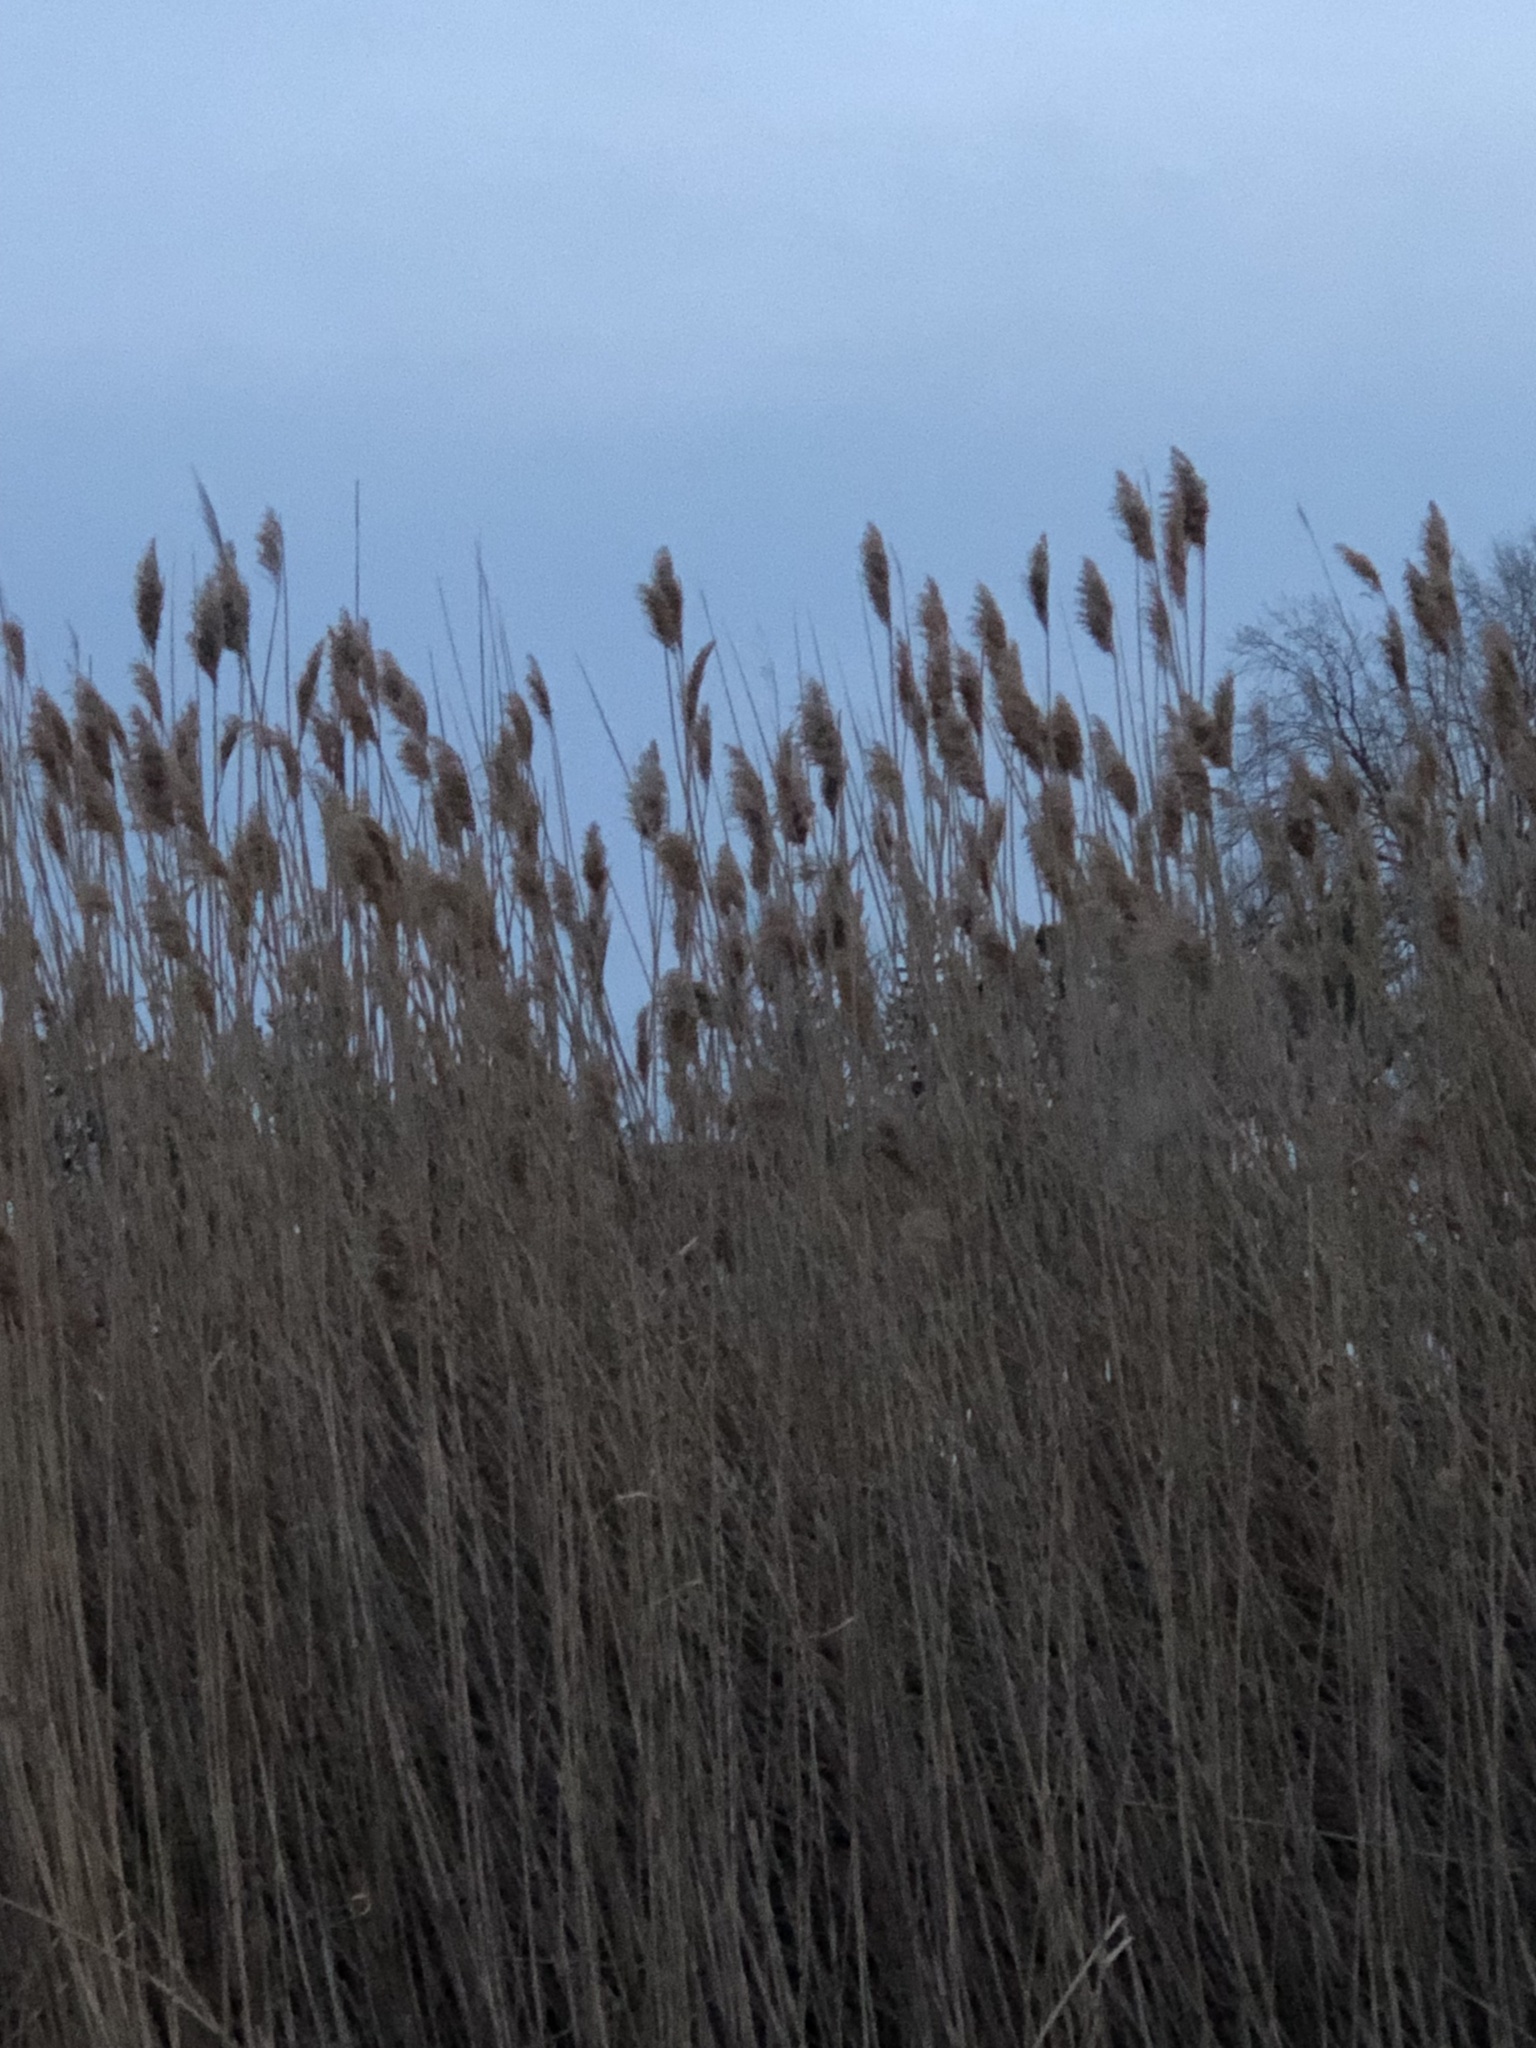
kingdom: Plantae
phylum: Tracheophyta
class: Liliopsida
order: Poales
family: Poaceae
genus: Phragmites
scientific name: Phragmites australis
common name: Common reed
